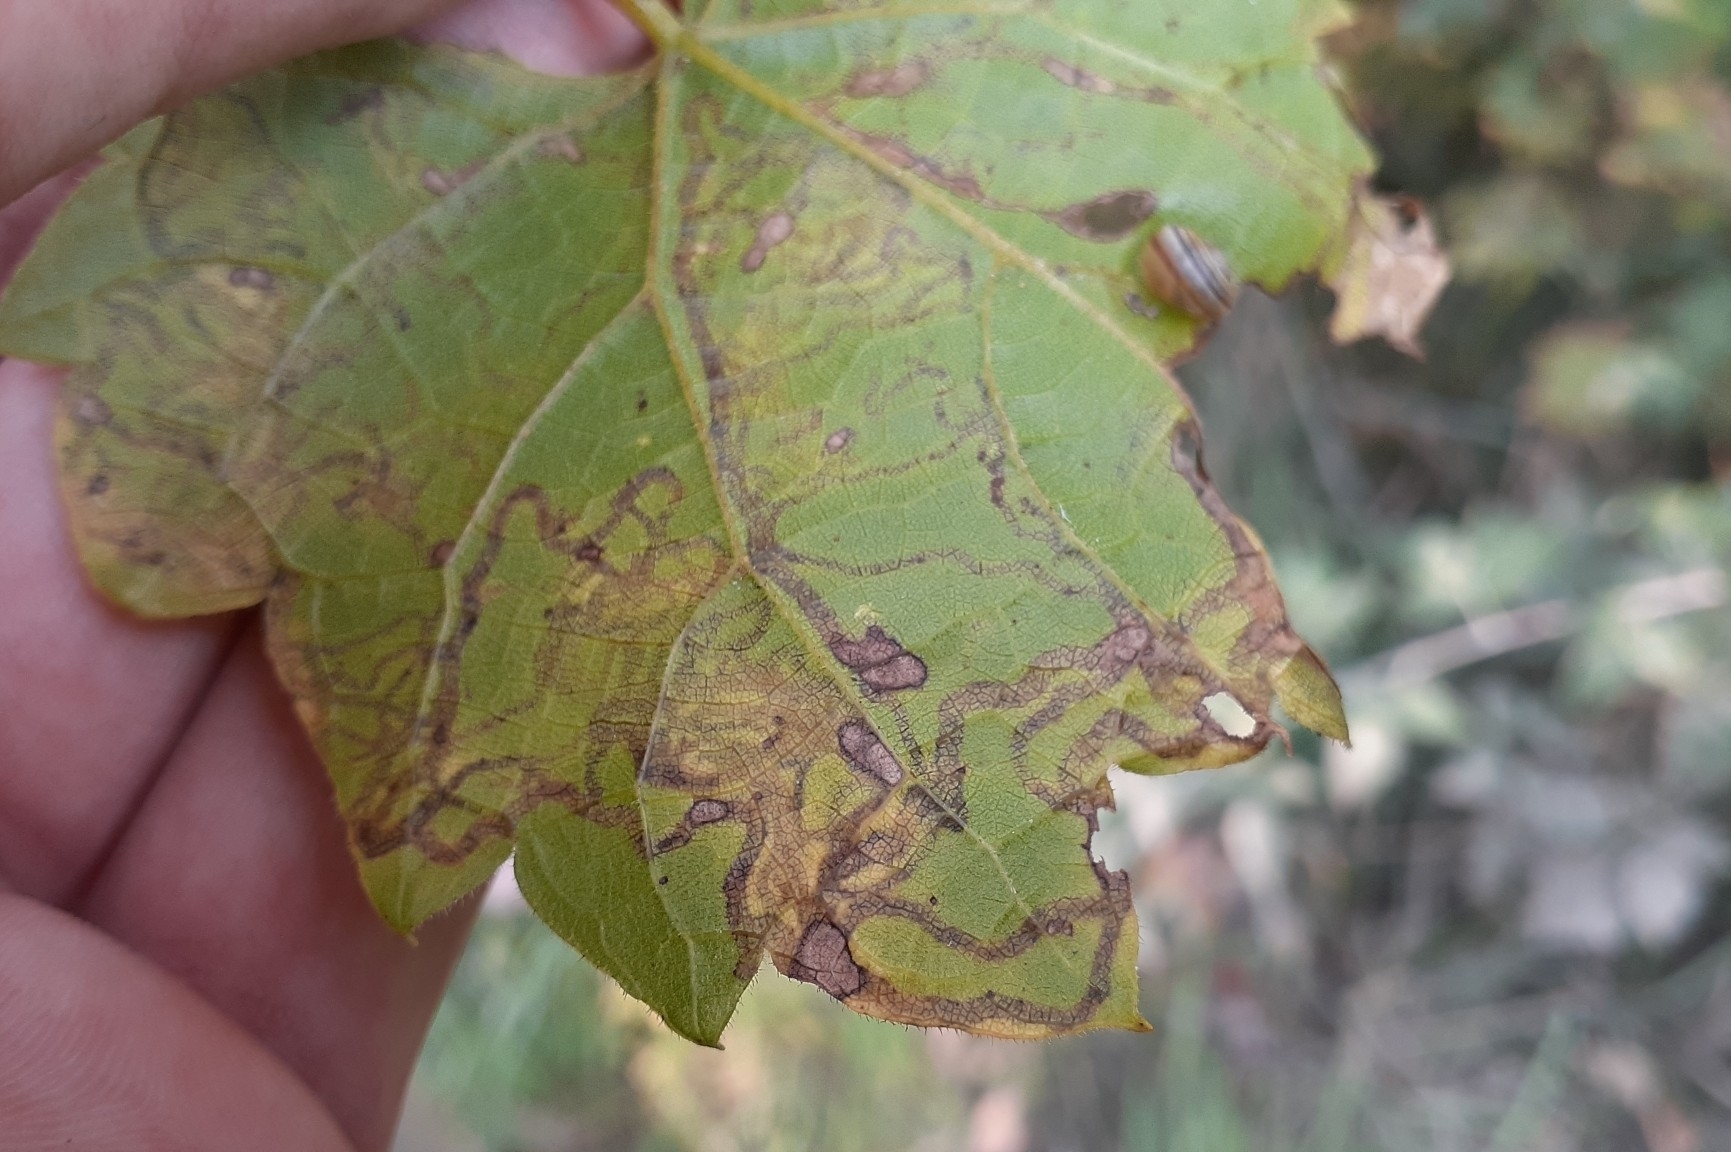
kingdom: Animalia
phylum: Arthropoda
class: Insecta
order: Lepidoptera
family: Gracillariidae
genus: Phyllocnistis
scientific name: Phyllocnistis vitifoliella
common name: Grape leaf-miner moth
